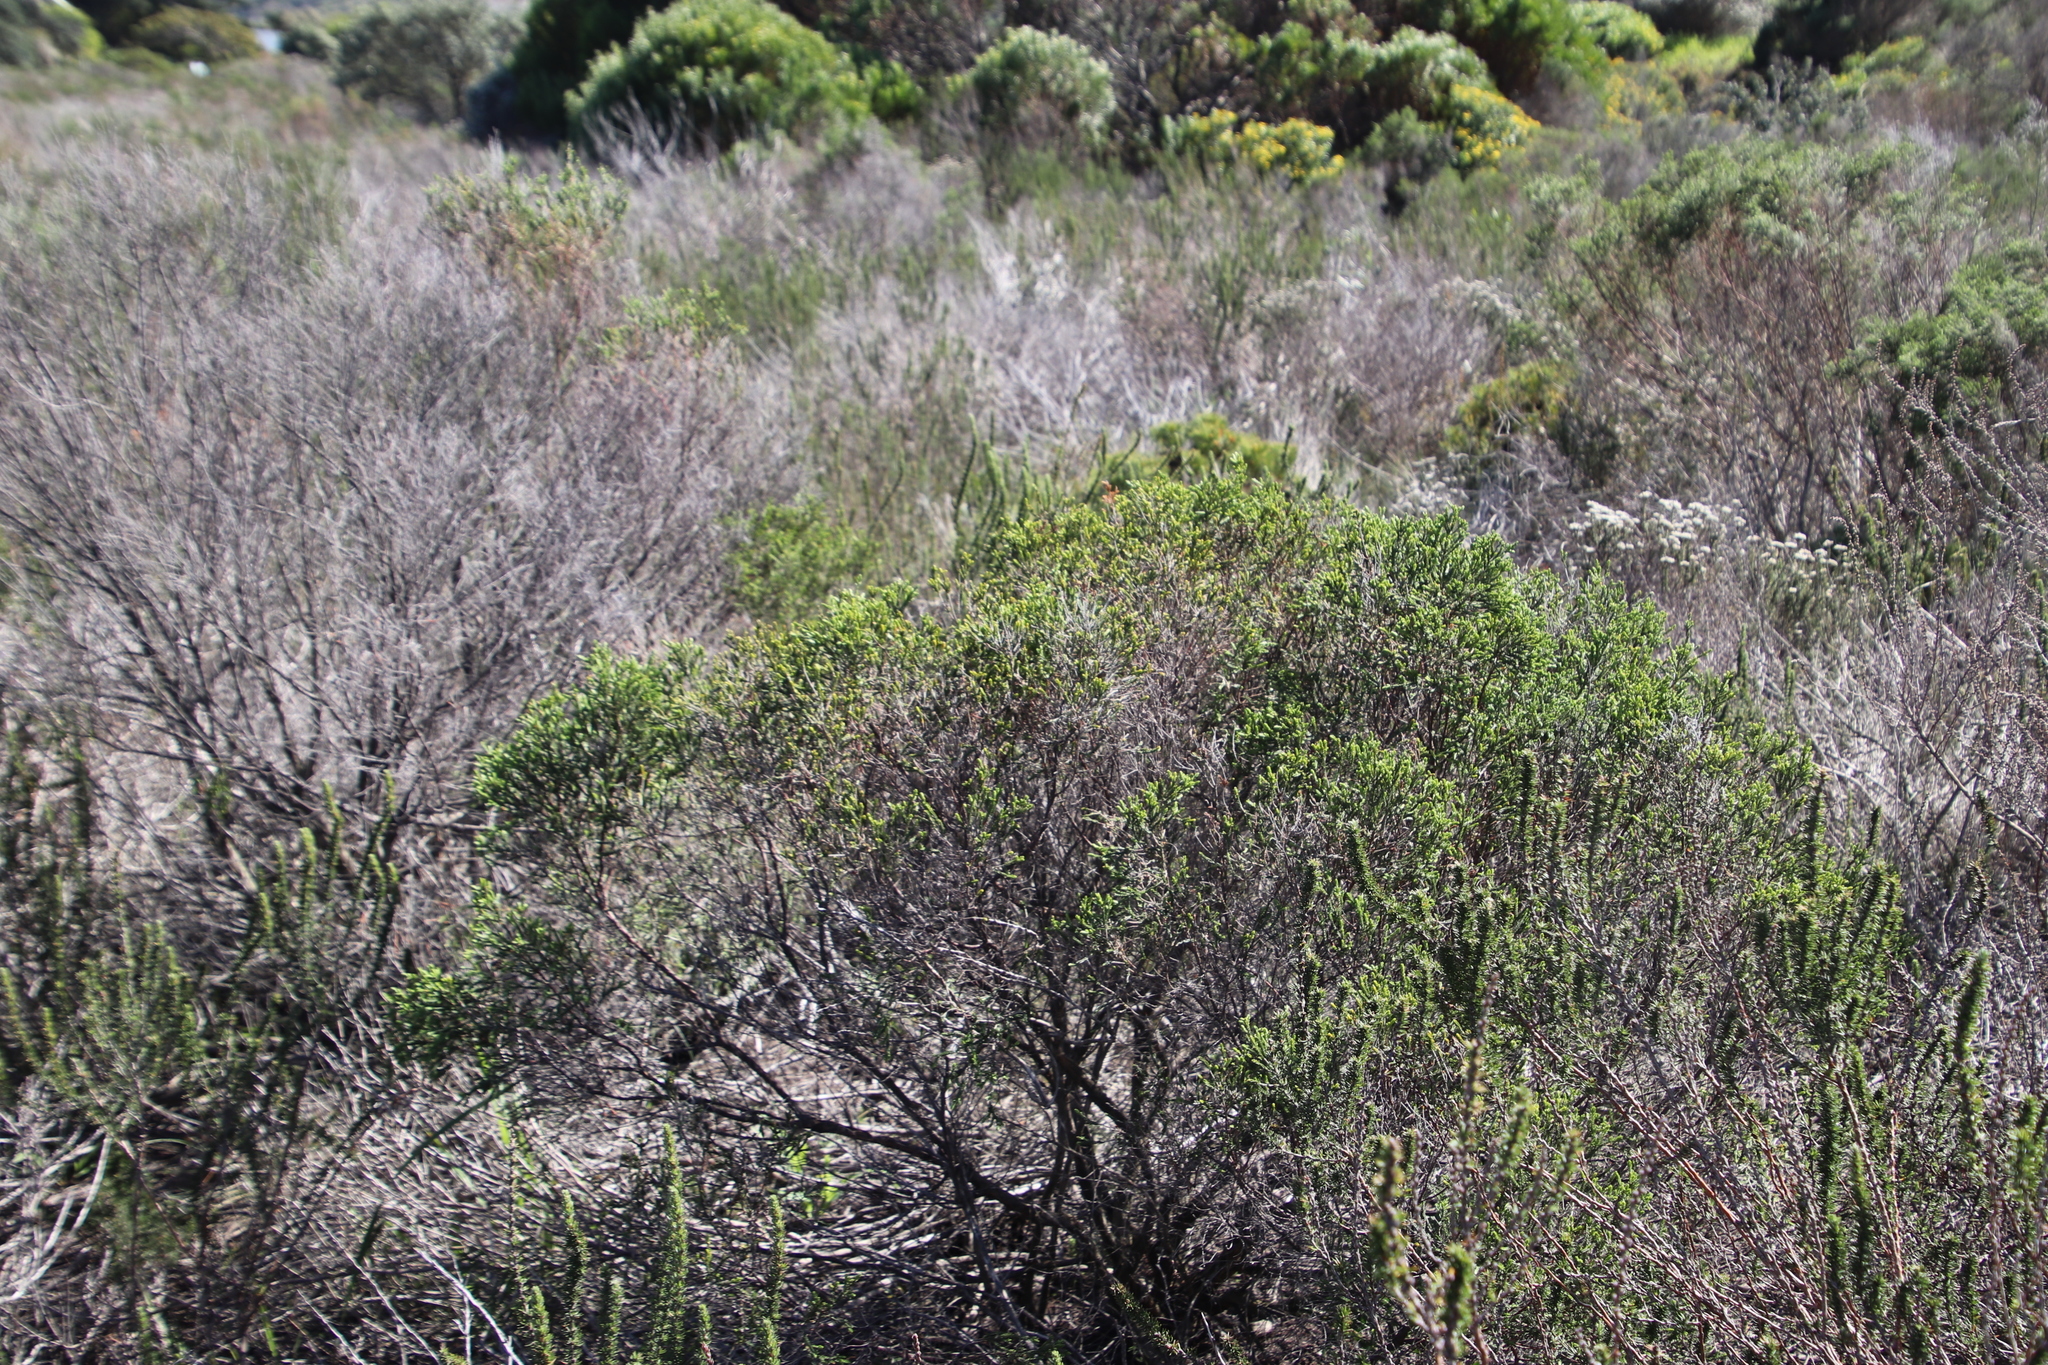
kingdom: Plantae
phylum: Tracheophyta
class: Magnoliopsida
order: Malvales
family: Thymelaeaceae
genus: Passerina
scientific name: Passerina corymbosa
